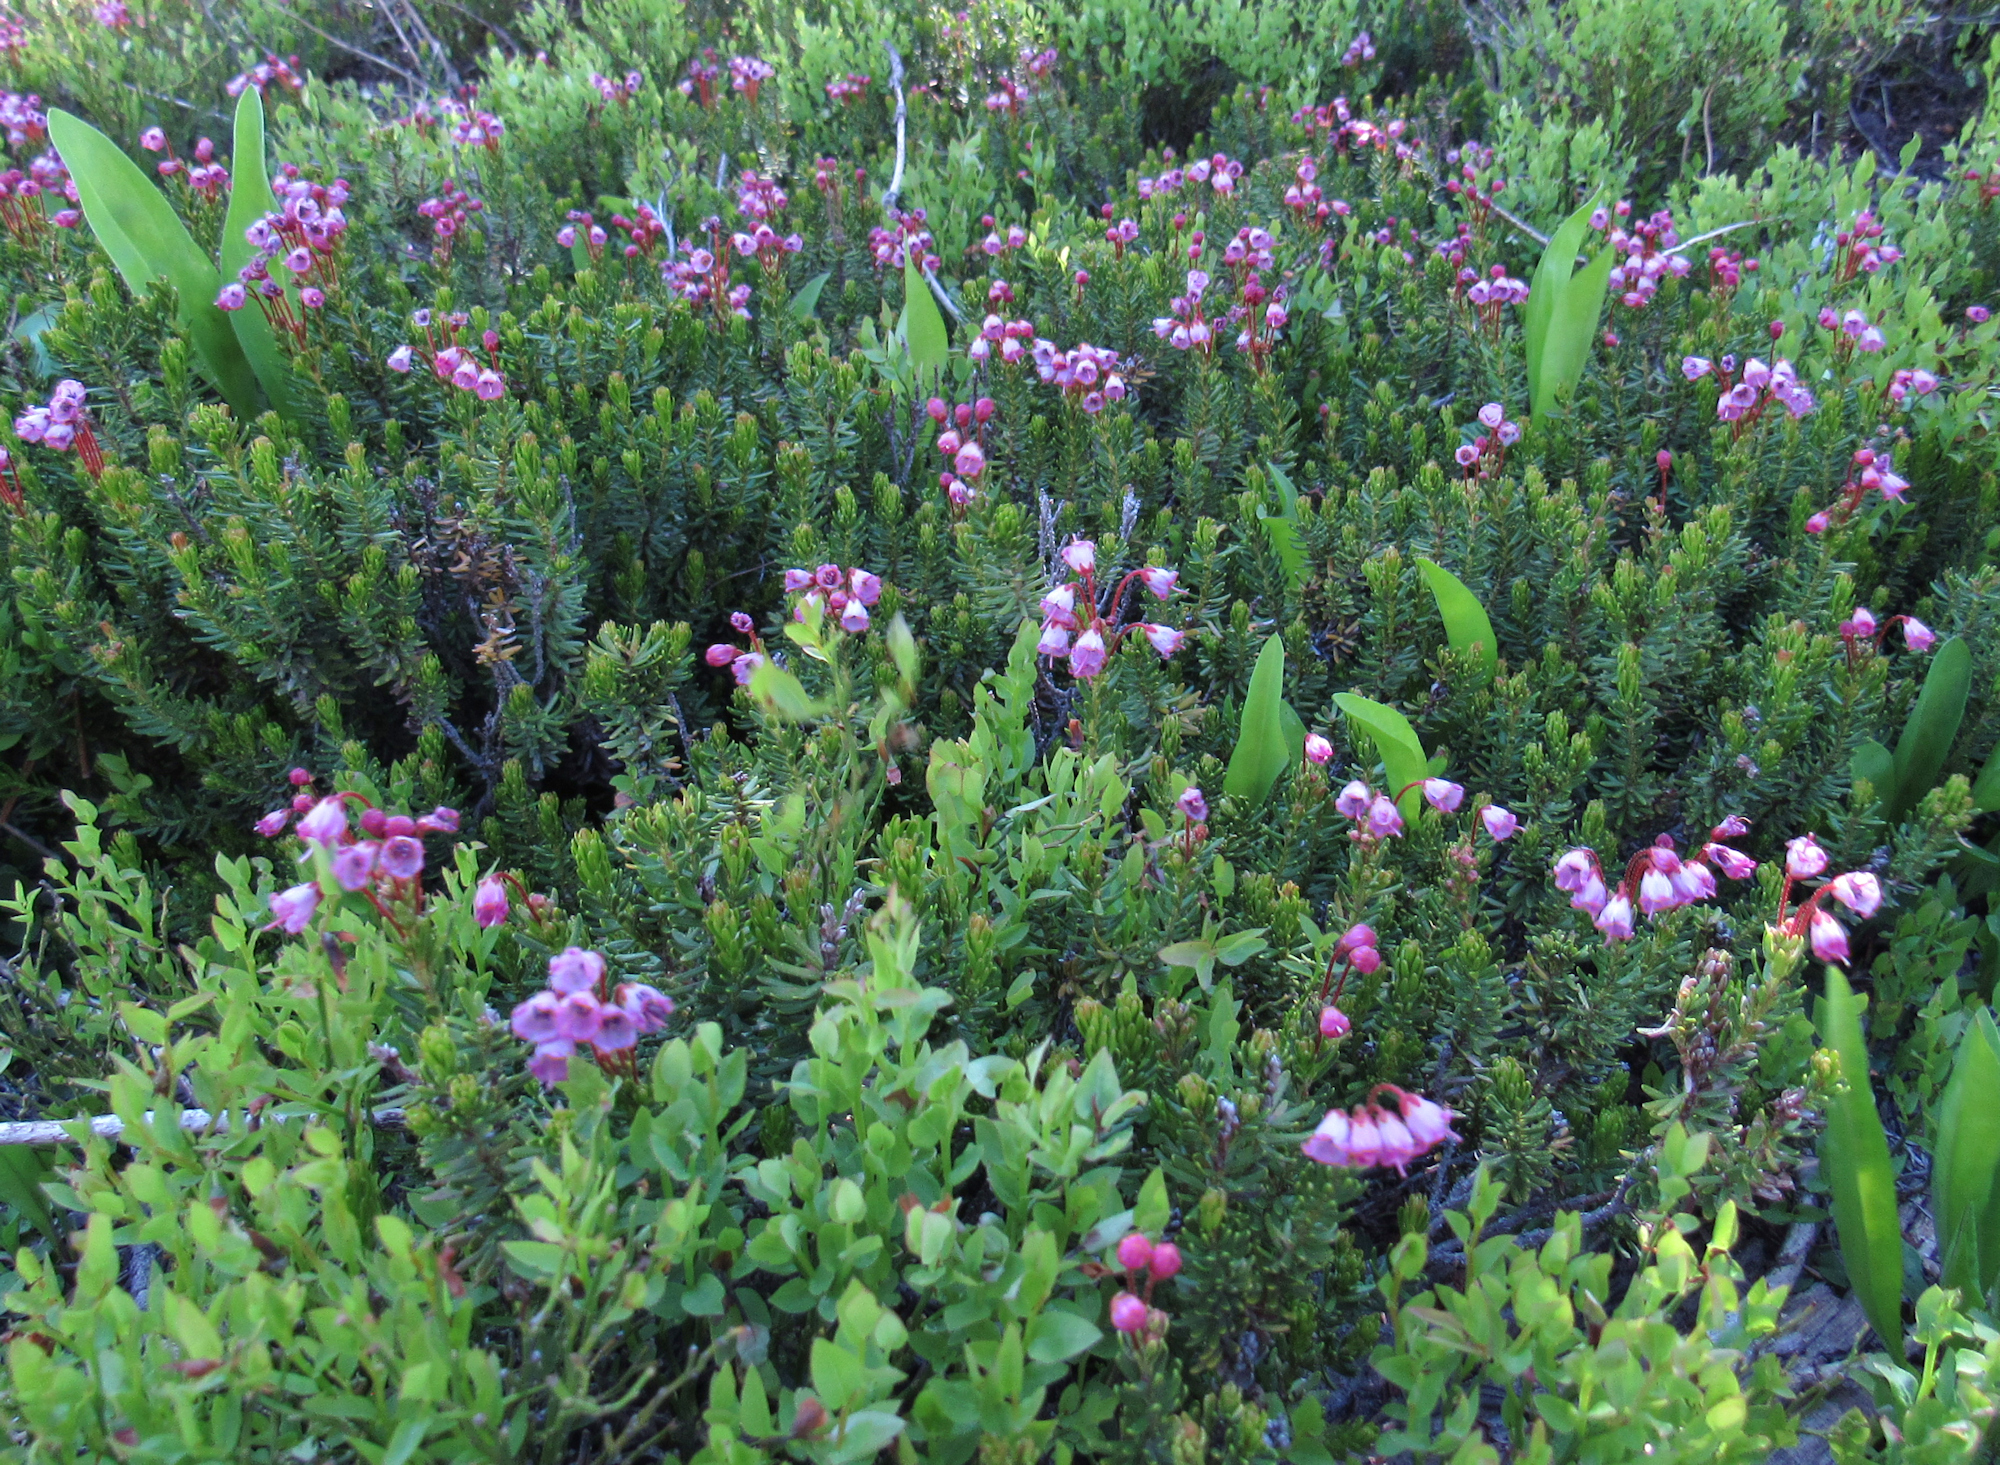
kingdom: Plantae
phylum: Tracheophyta
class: Magnoliopsida
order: Ericales
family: Ericaceae
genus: Phyllodoce
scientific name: Phyllodoce empetriformis
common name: Pink mountain heather
